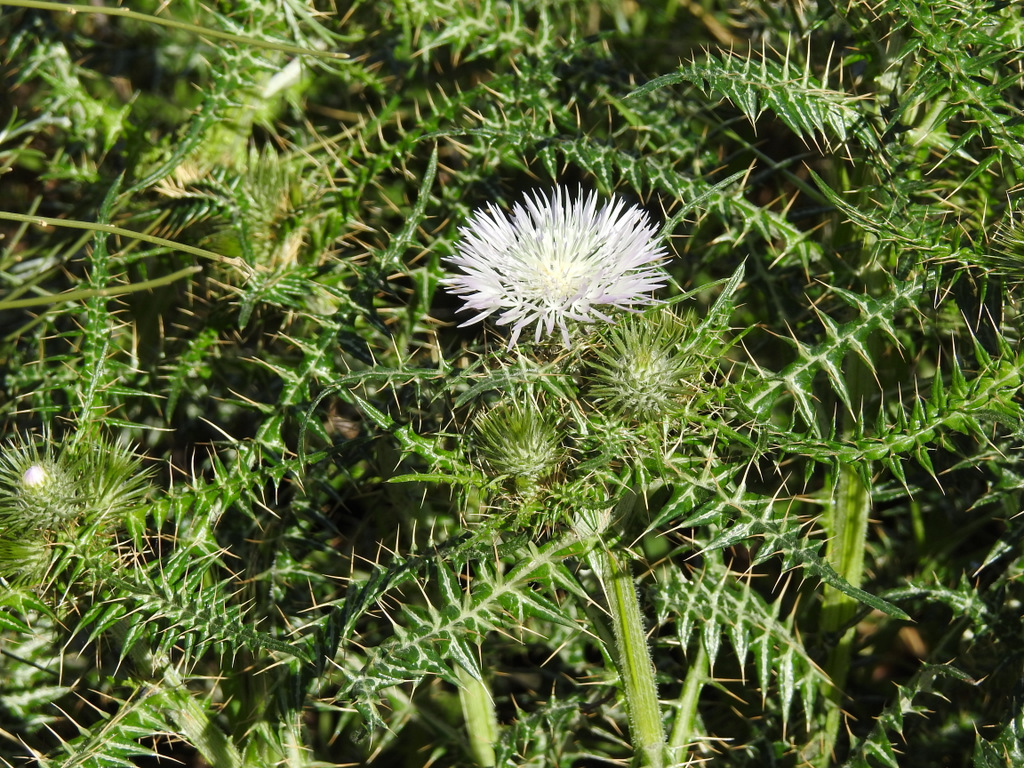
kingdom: Plantae
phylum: Tracheophyta
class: Magnoliopsida
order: Asterales
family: Asteraceae
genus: Galactites
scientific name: Galactites tomentosa
